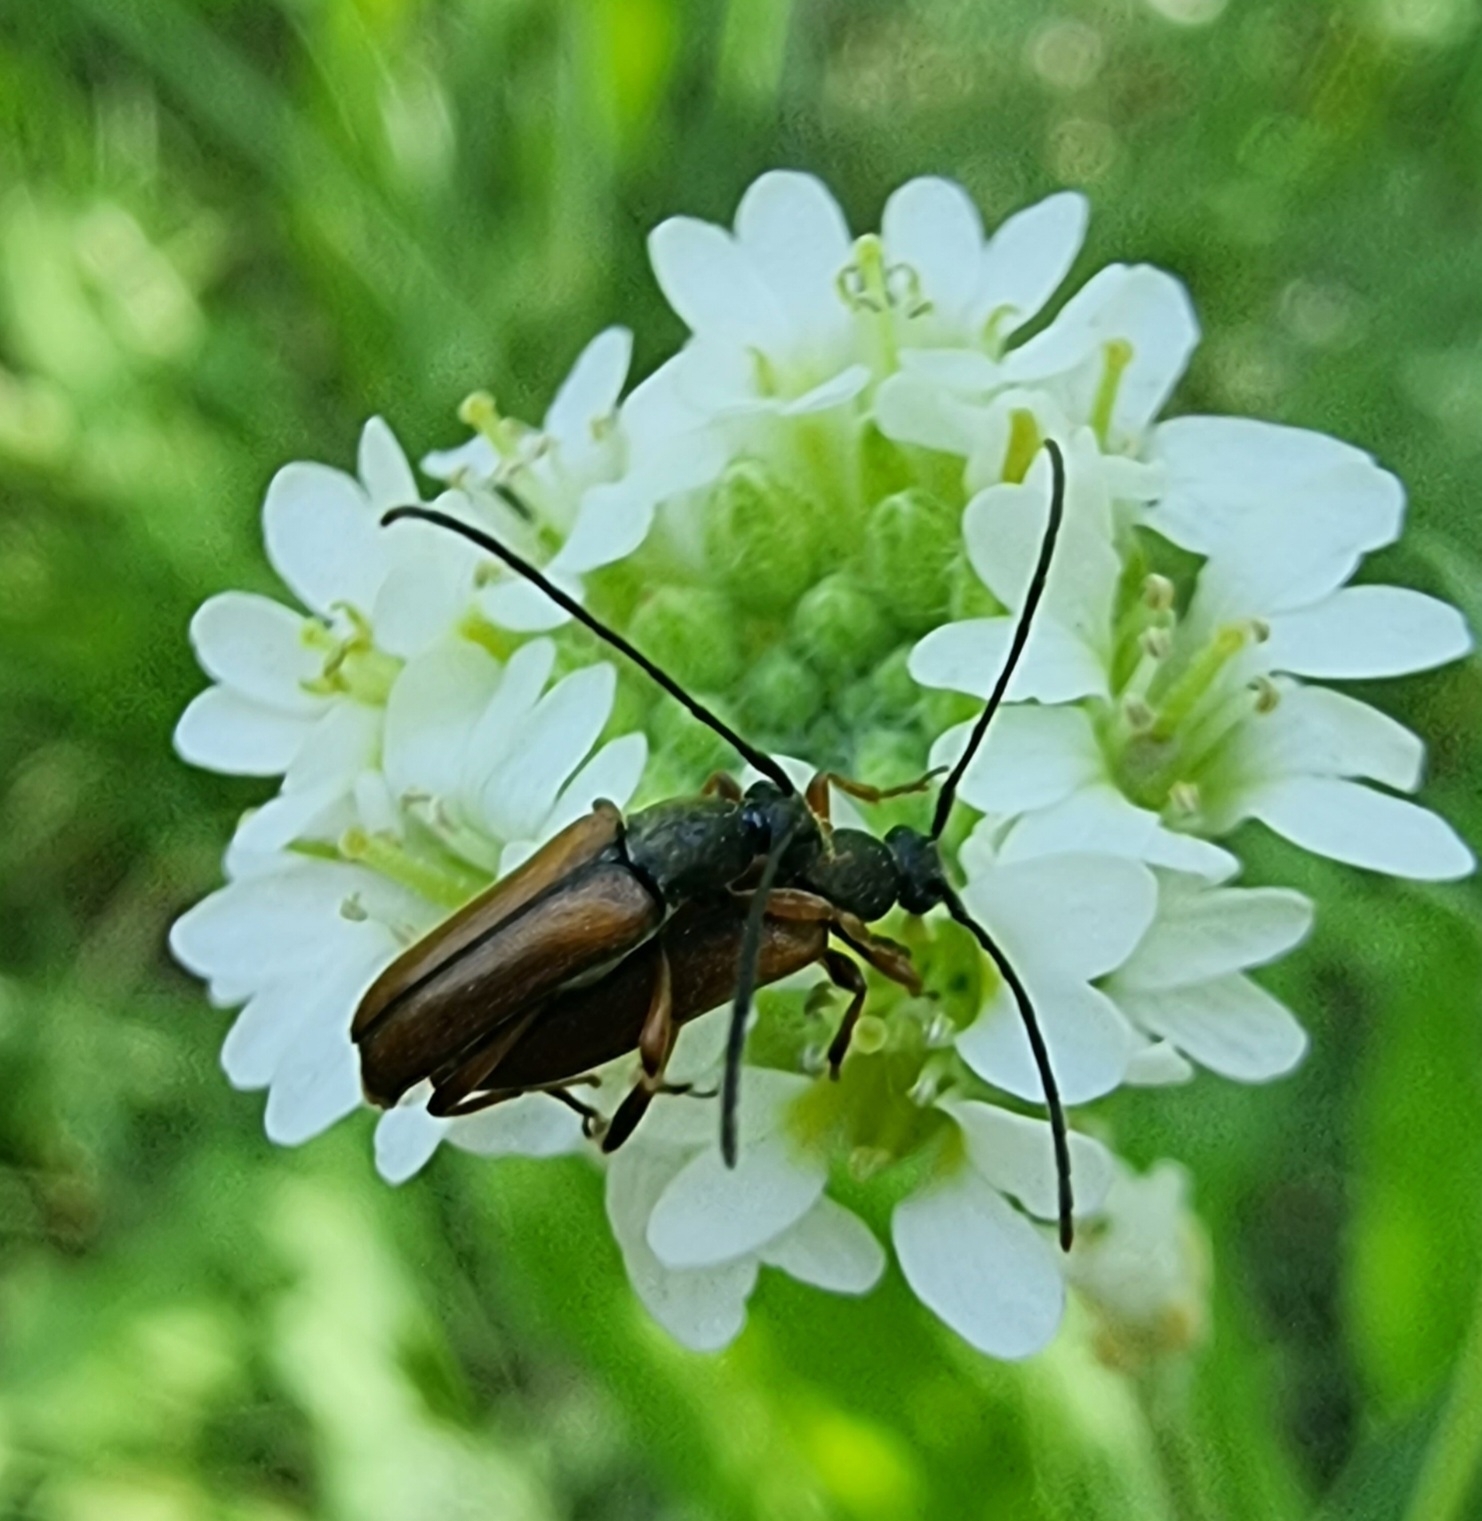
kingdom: Animalia
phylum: Arthropoda
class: Insecta
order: Coleoptera
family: Cerambycidae
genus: Alosterna
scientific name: Alosterna tabacicolor
